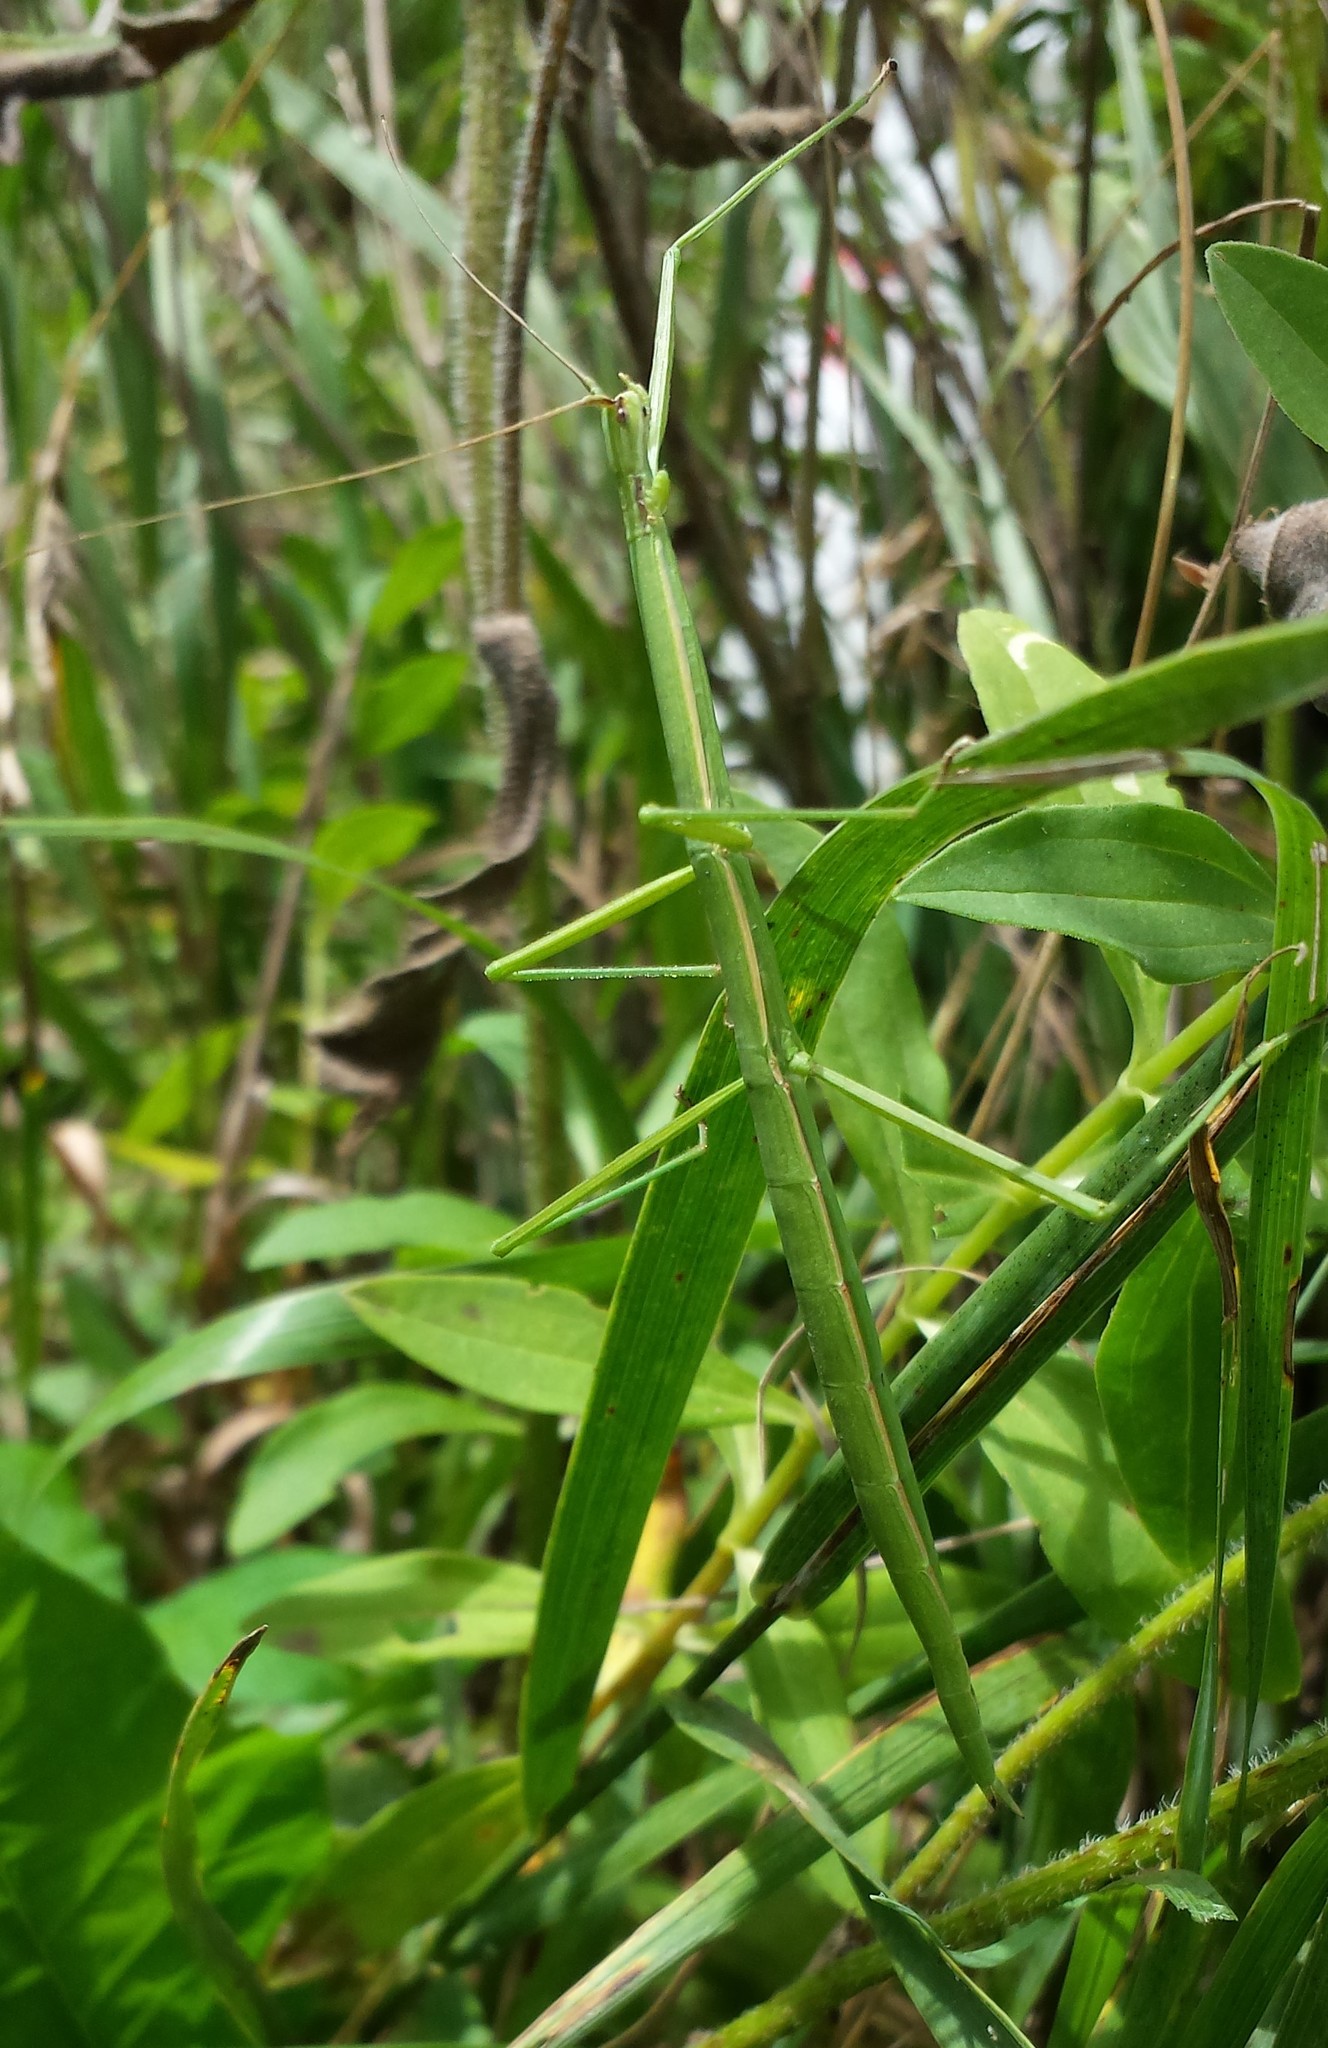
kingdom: Animalia
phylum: Arthropoda
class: Insecta
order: Phasmida
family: Diapheromeridae
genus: Manomera
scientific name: Manomera blatchleyi
